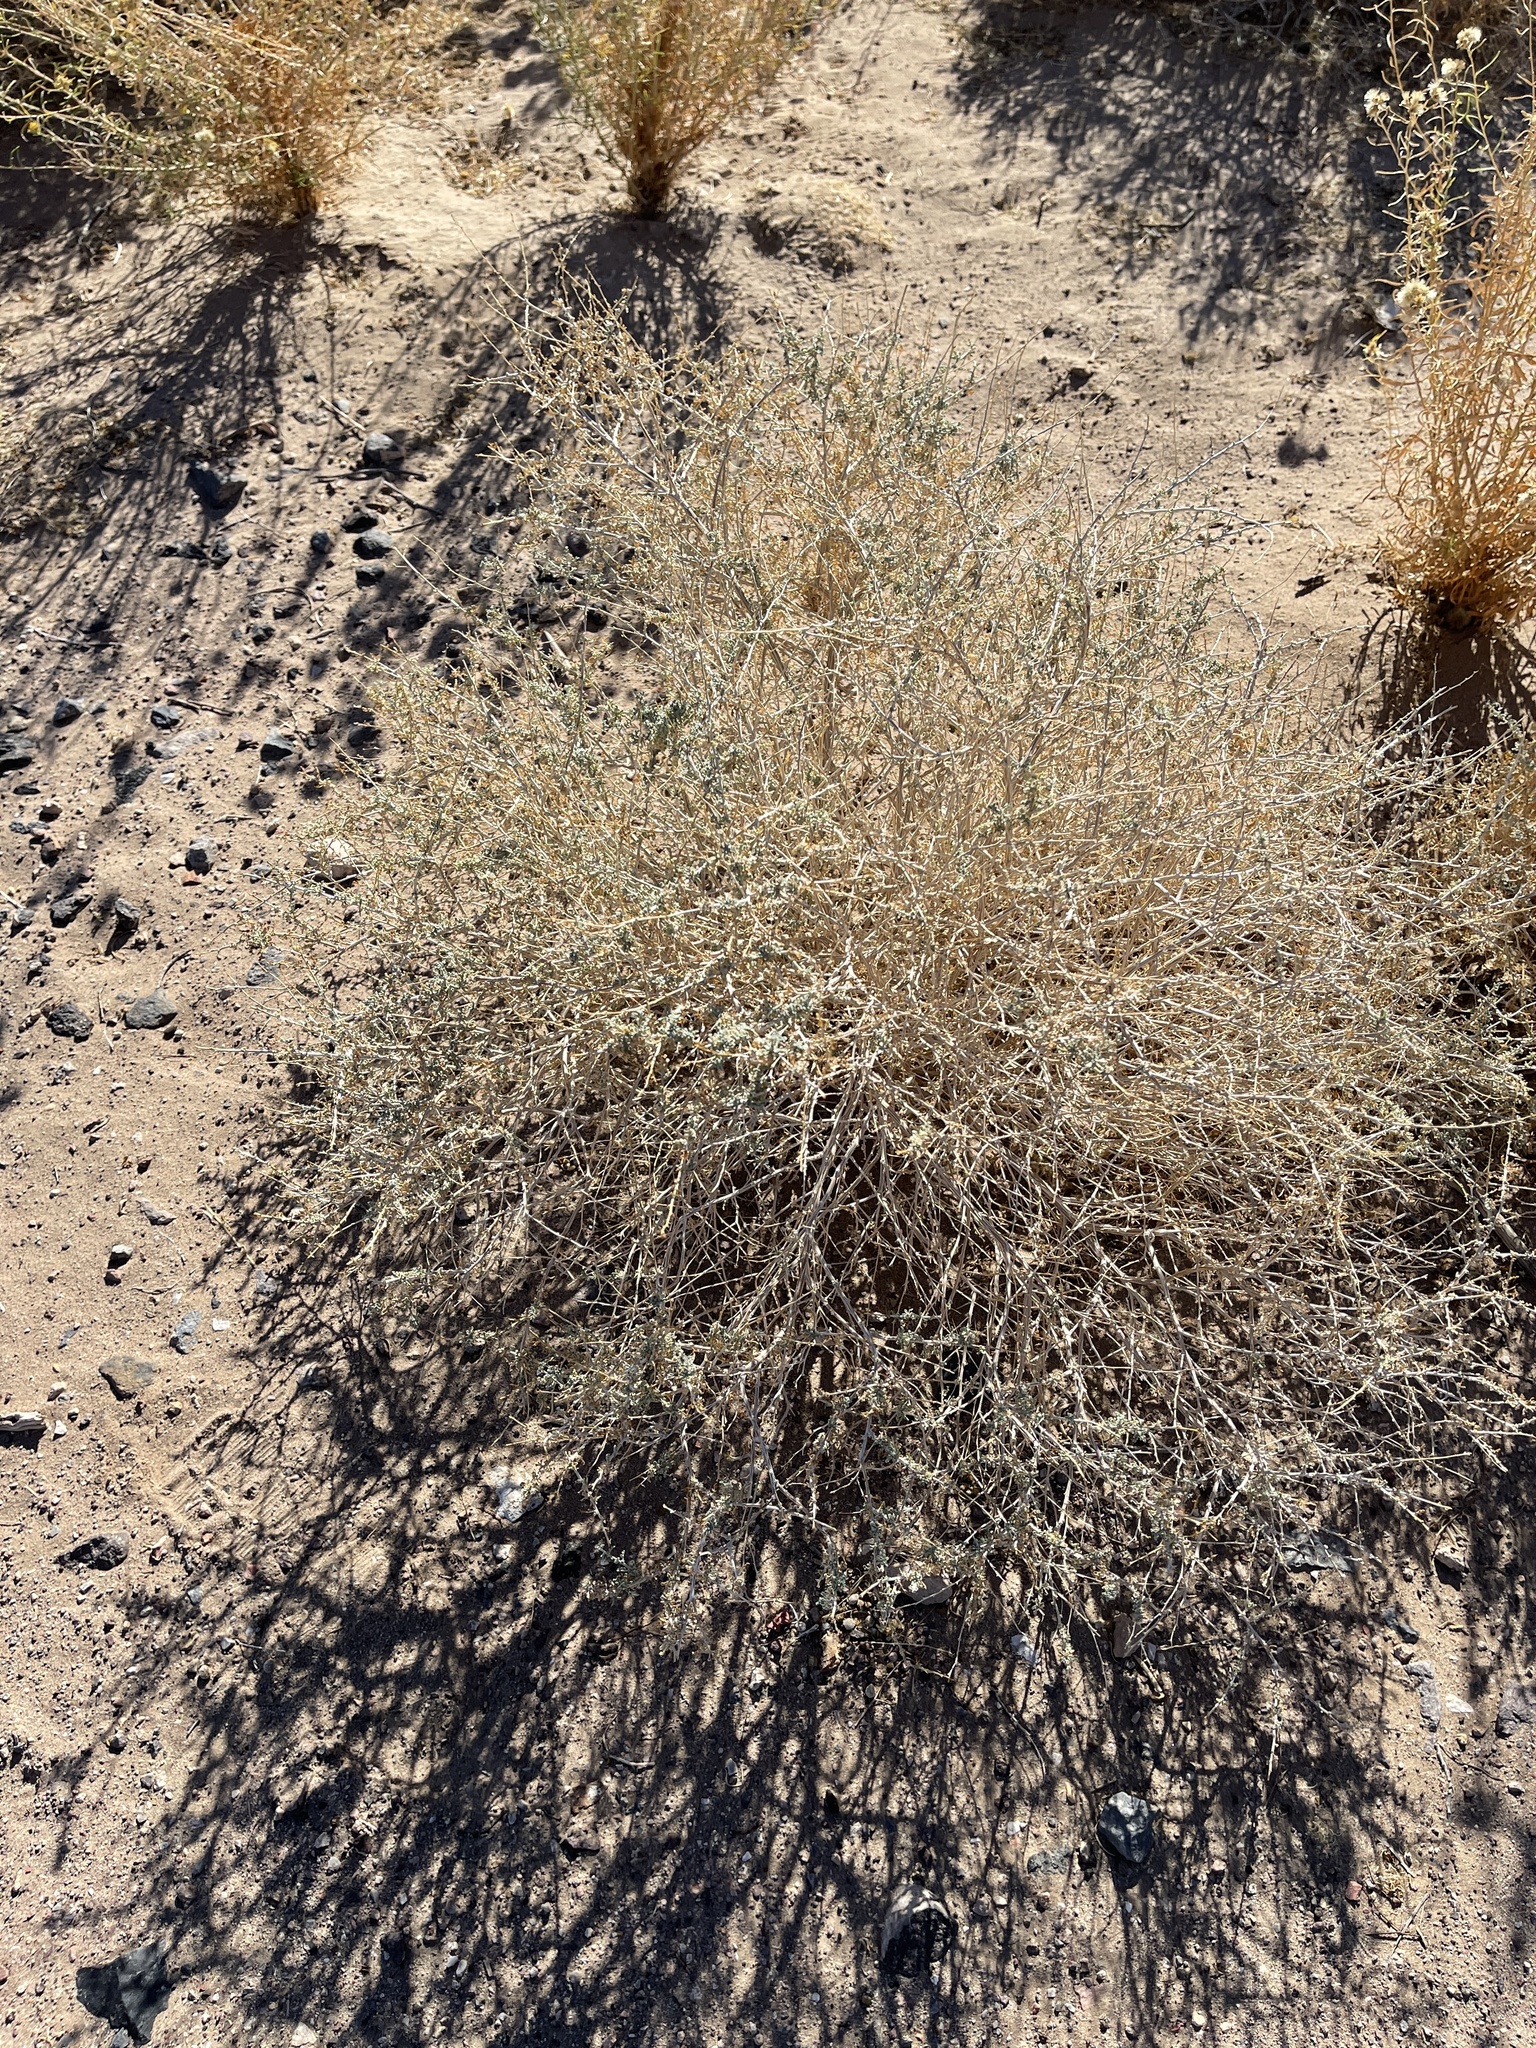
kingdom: Plantae
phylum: Tracheophyta
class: Magnoliopsida
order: Asterales
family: Asteraceae
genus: Ambrosia
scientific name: Ambrosia dumosa
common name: Bur-sage
